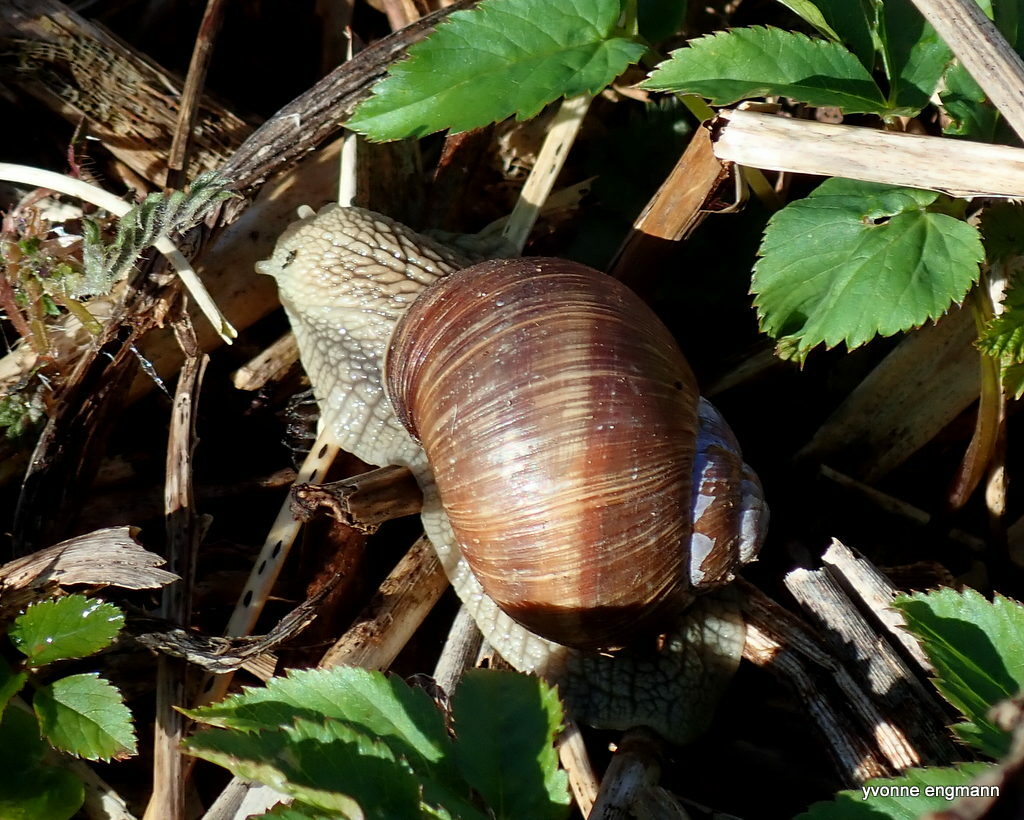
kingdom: Animalia
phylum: Mollusca
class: Gastropoda
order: Stylommatophora
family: Helicidae
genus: Helix
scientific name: Helix pomatia
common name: Roman snail
